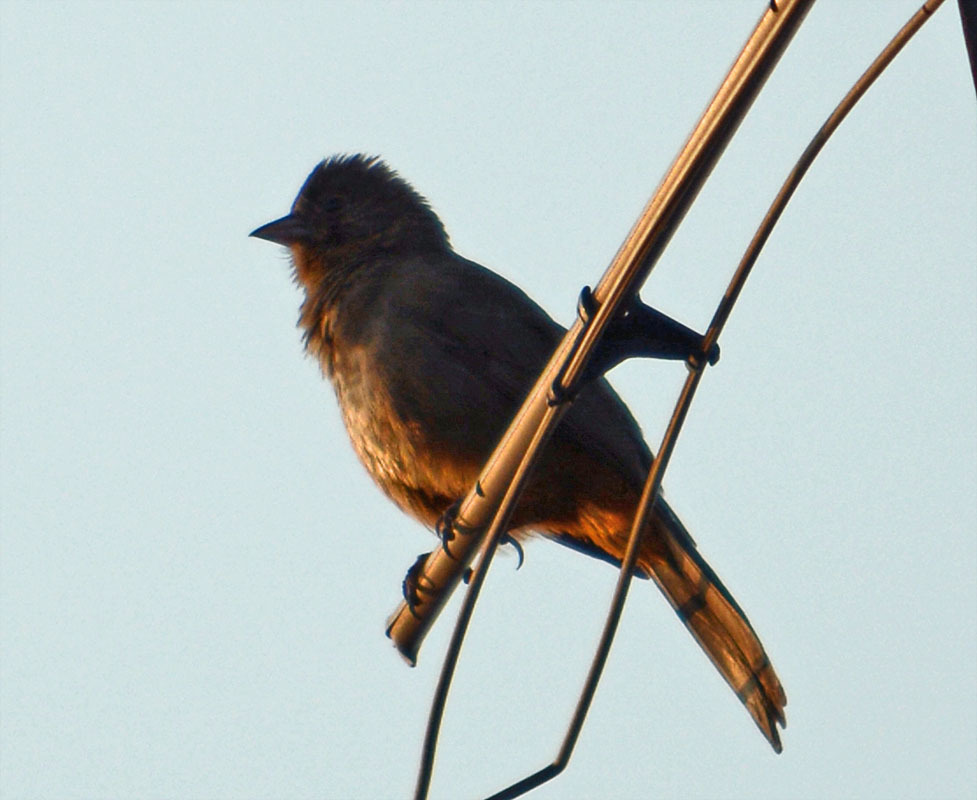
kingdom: Animalia
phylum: Chordata
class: Aves
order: Passeriformes
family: Passerellidae
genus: Melozone
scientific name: Melozone fusca
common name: Canyon towhee
